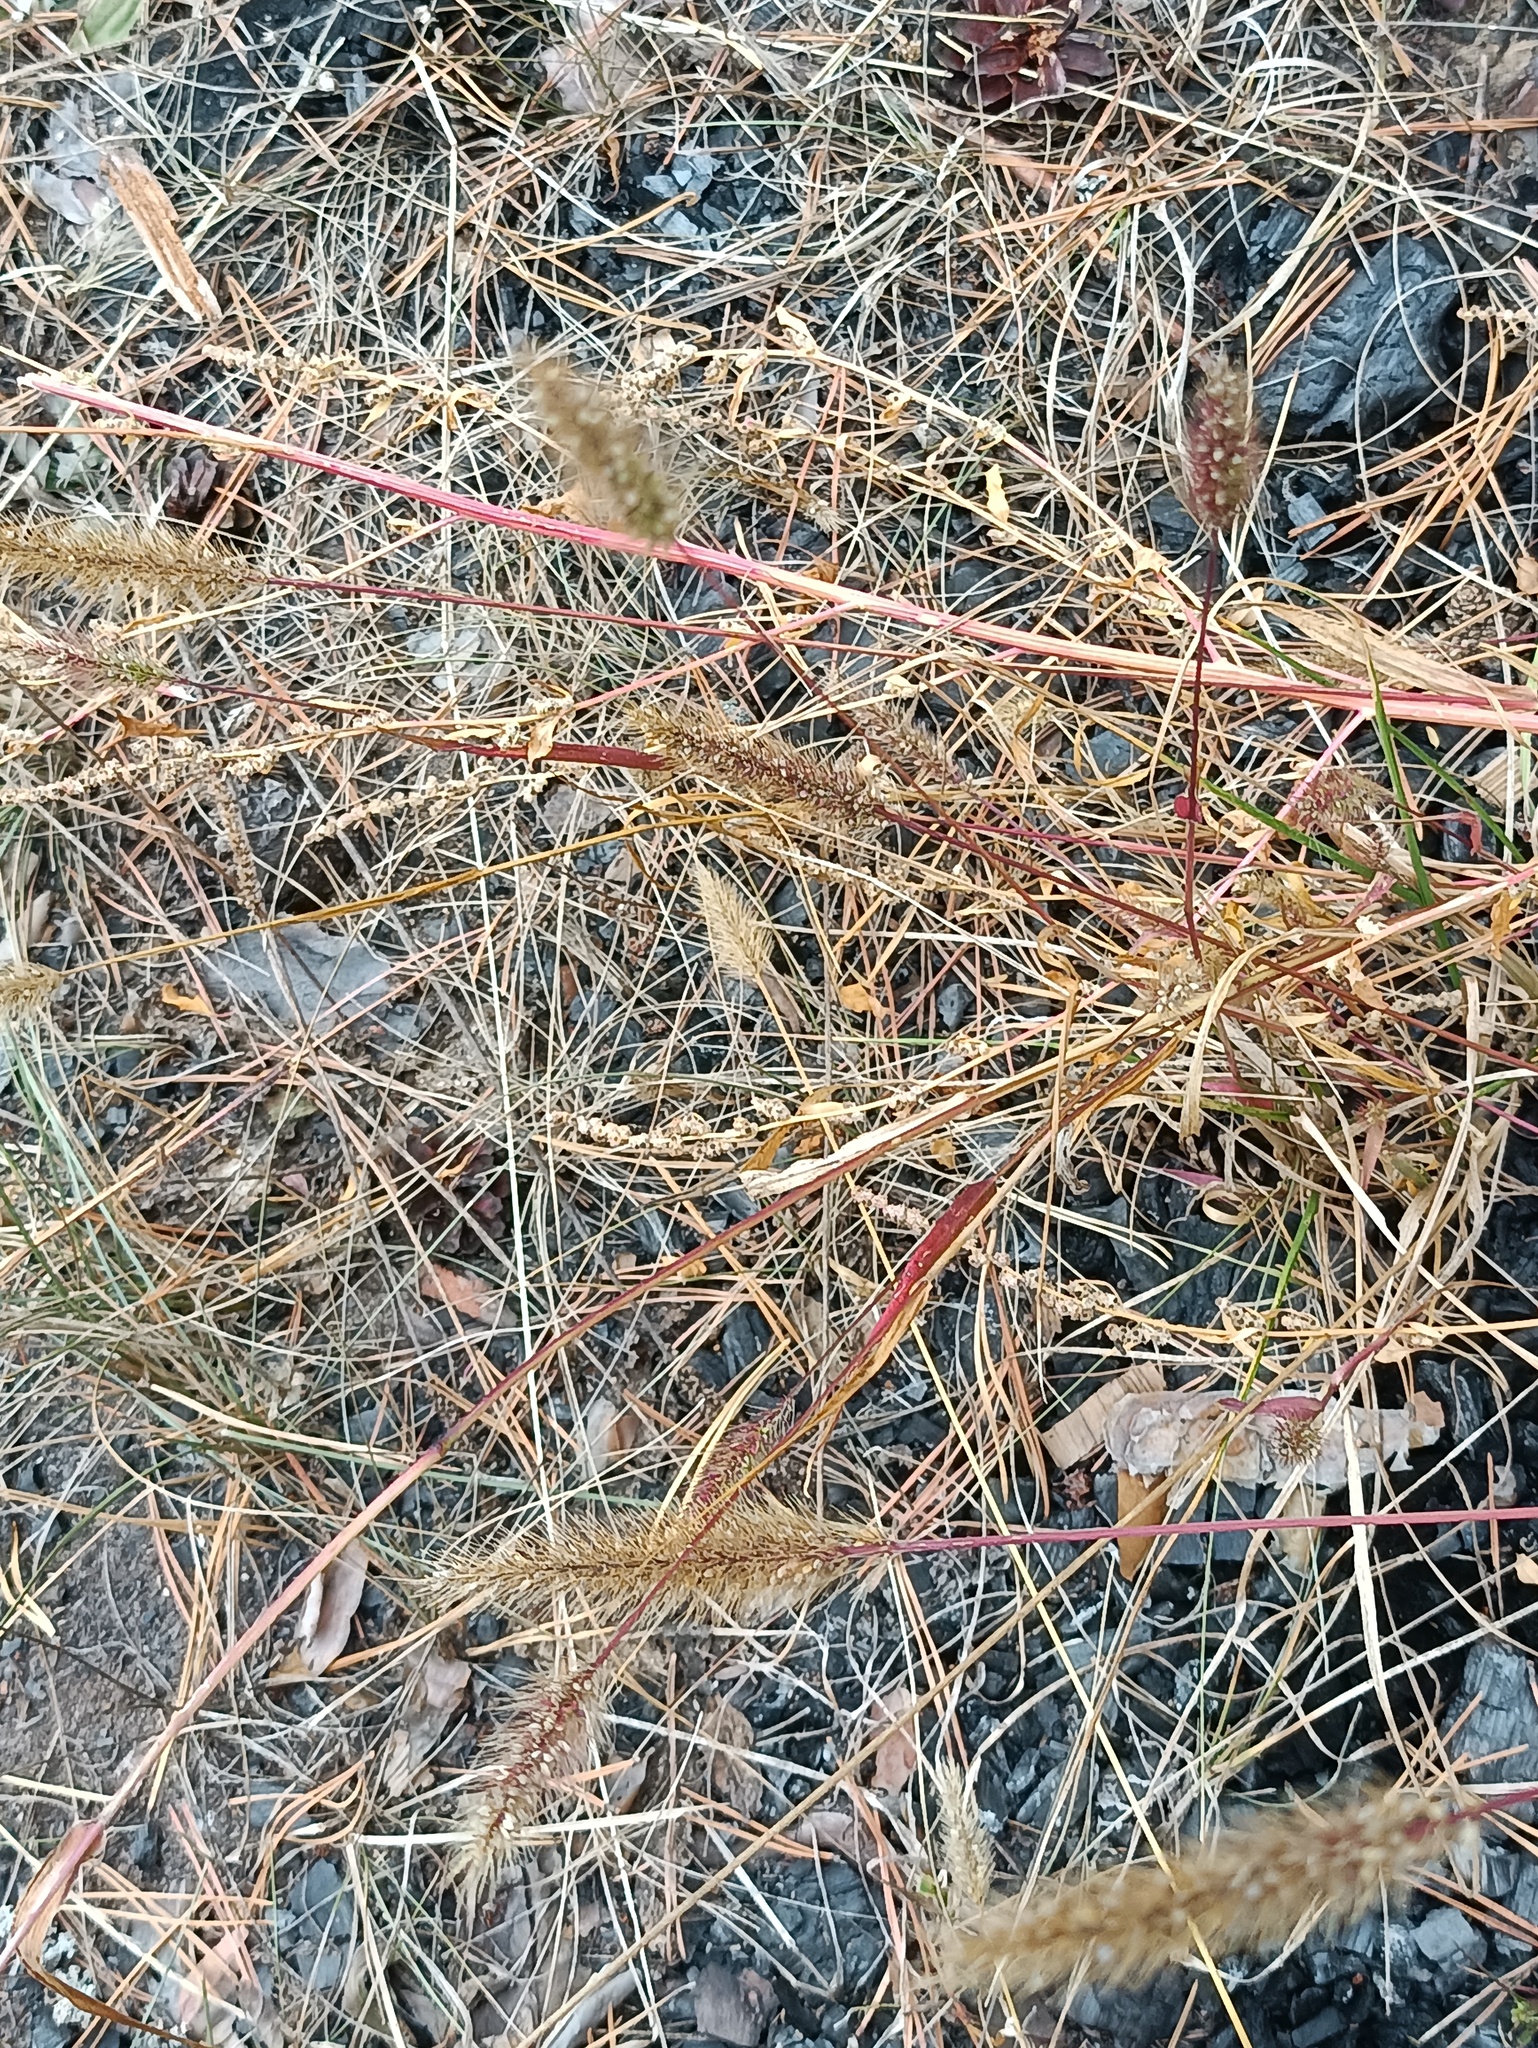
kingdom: Plantae
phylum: Tracheophyta
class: Liliopsida
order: Poales
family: Poaceae
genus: Setaria
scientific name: Setaria viridis
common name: Green bristlegrass
